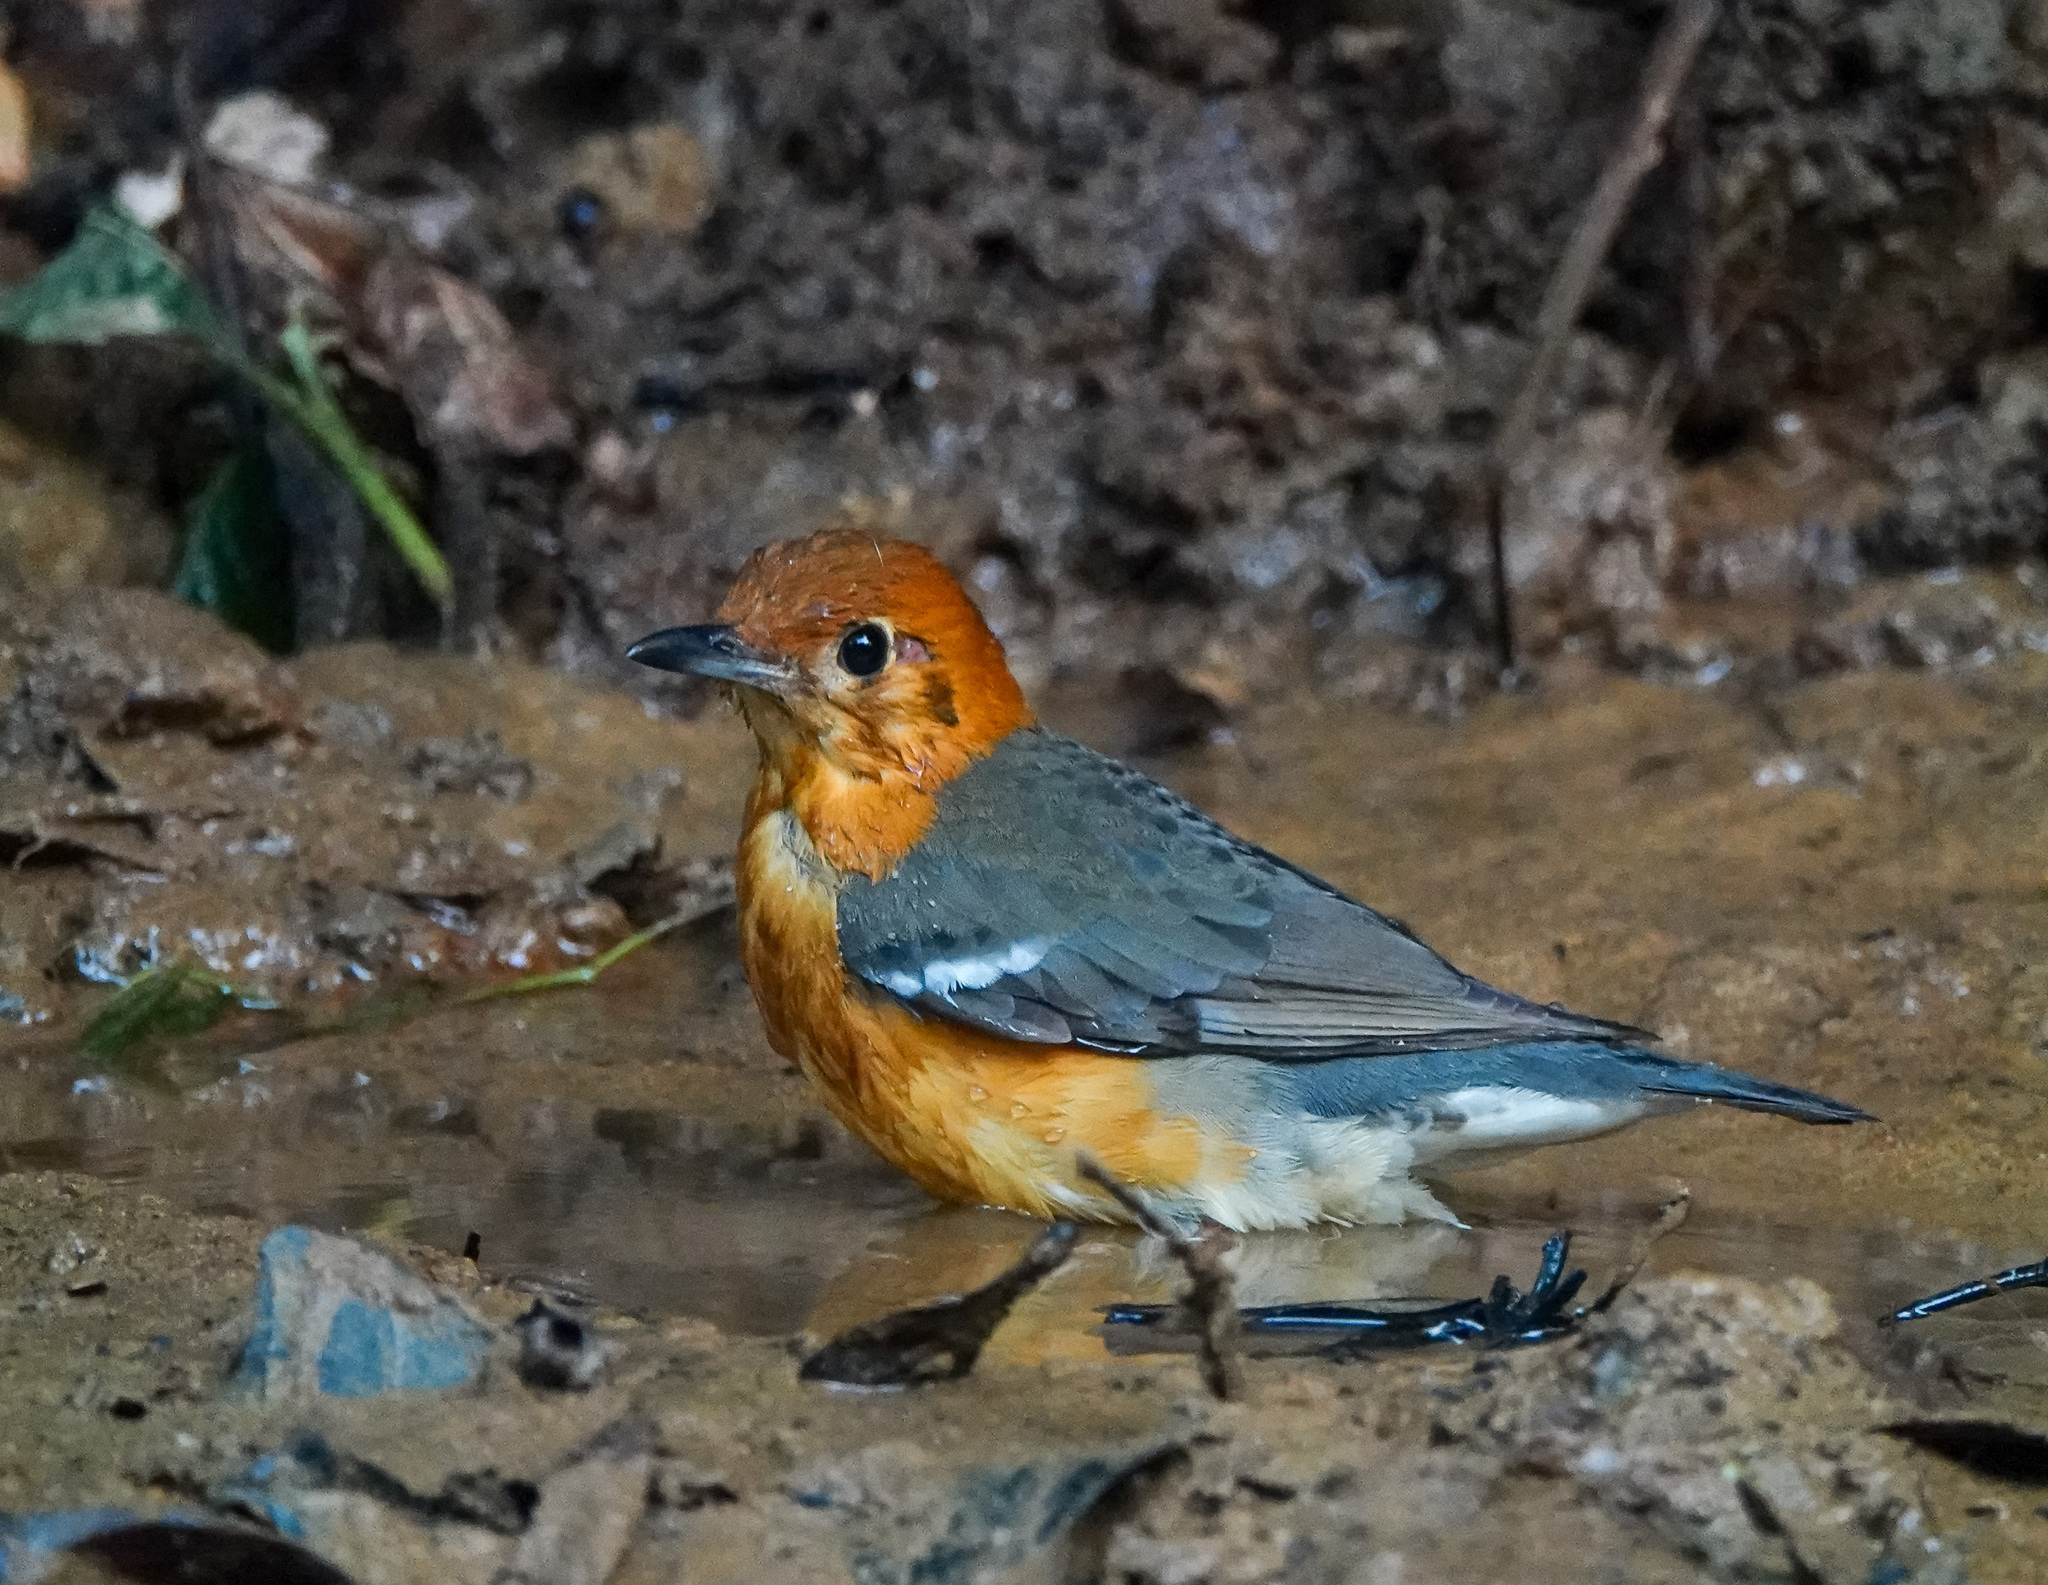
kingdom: Animalia
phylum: Chordata
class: Aves
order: Passeriformes
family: Turdidae
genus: Geokichla
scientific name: Geokichla citrina
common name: Orange-headed thrush
